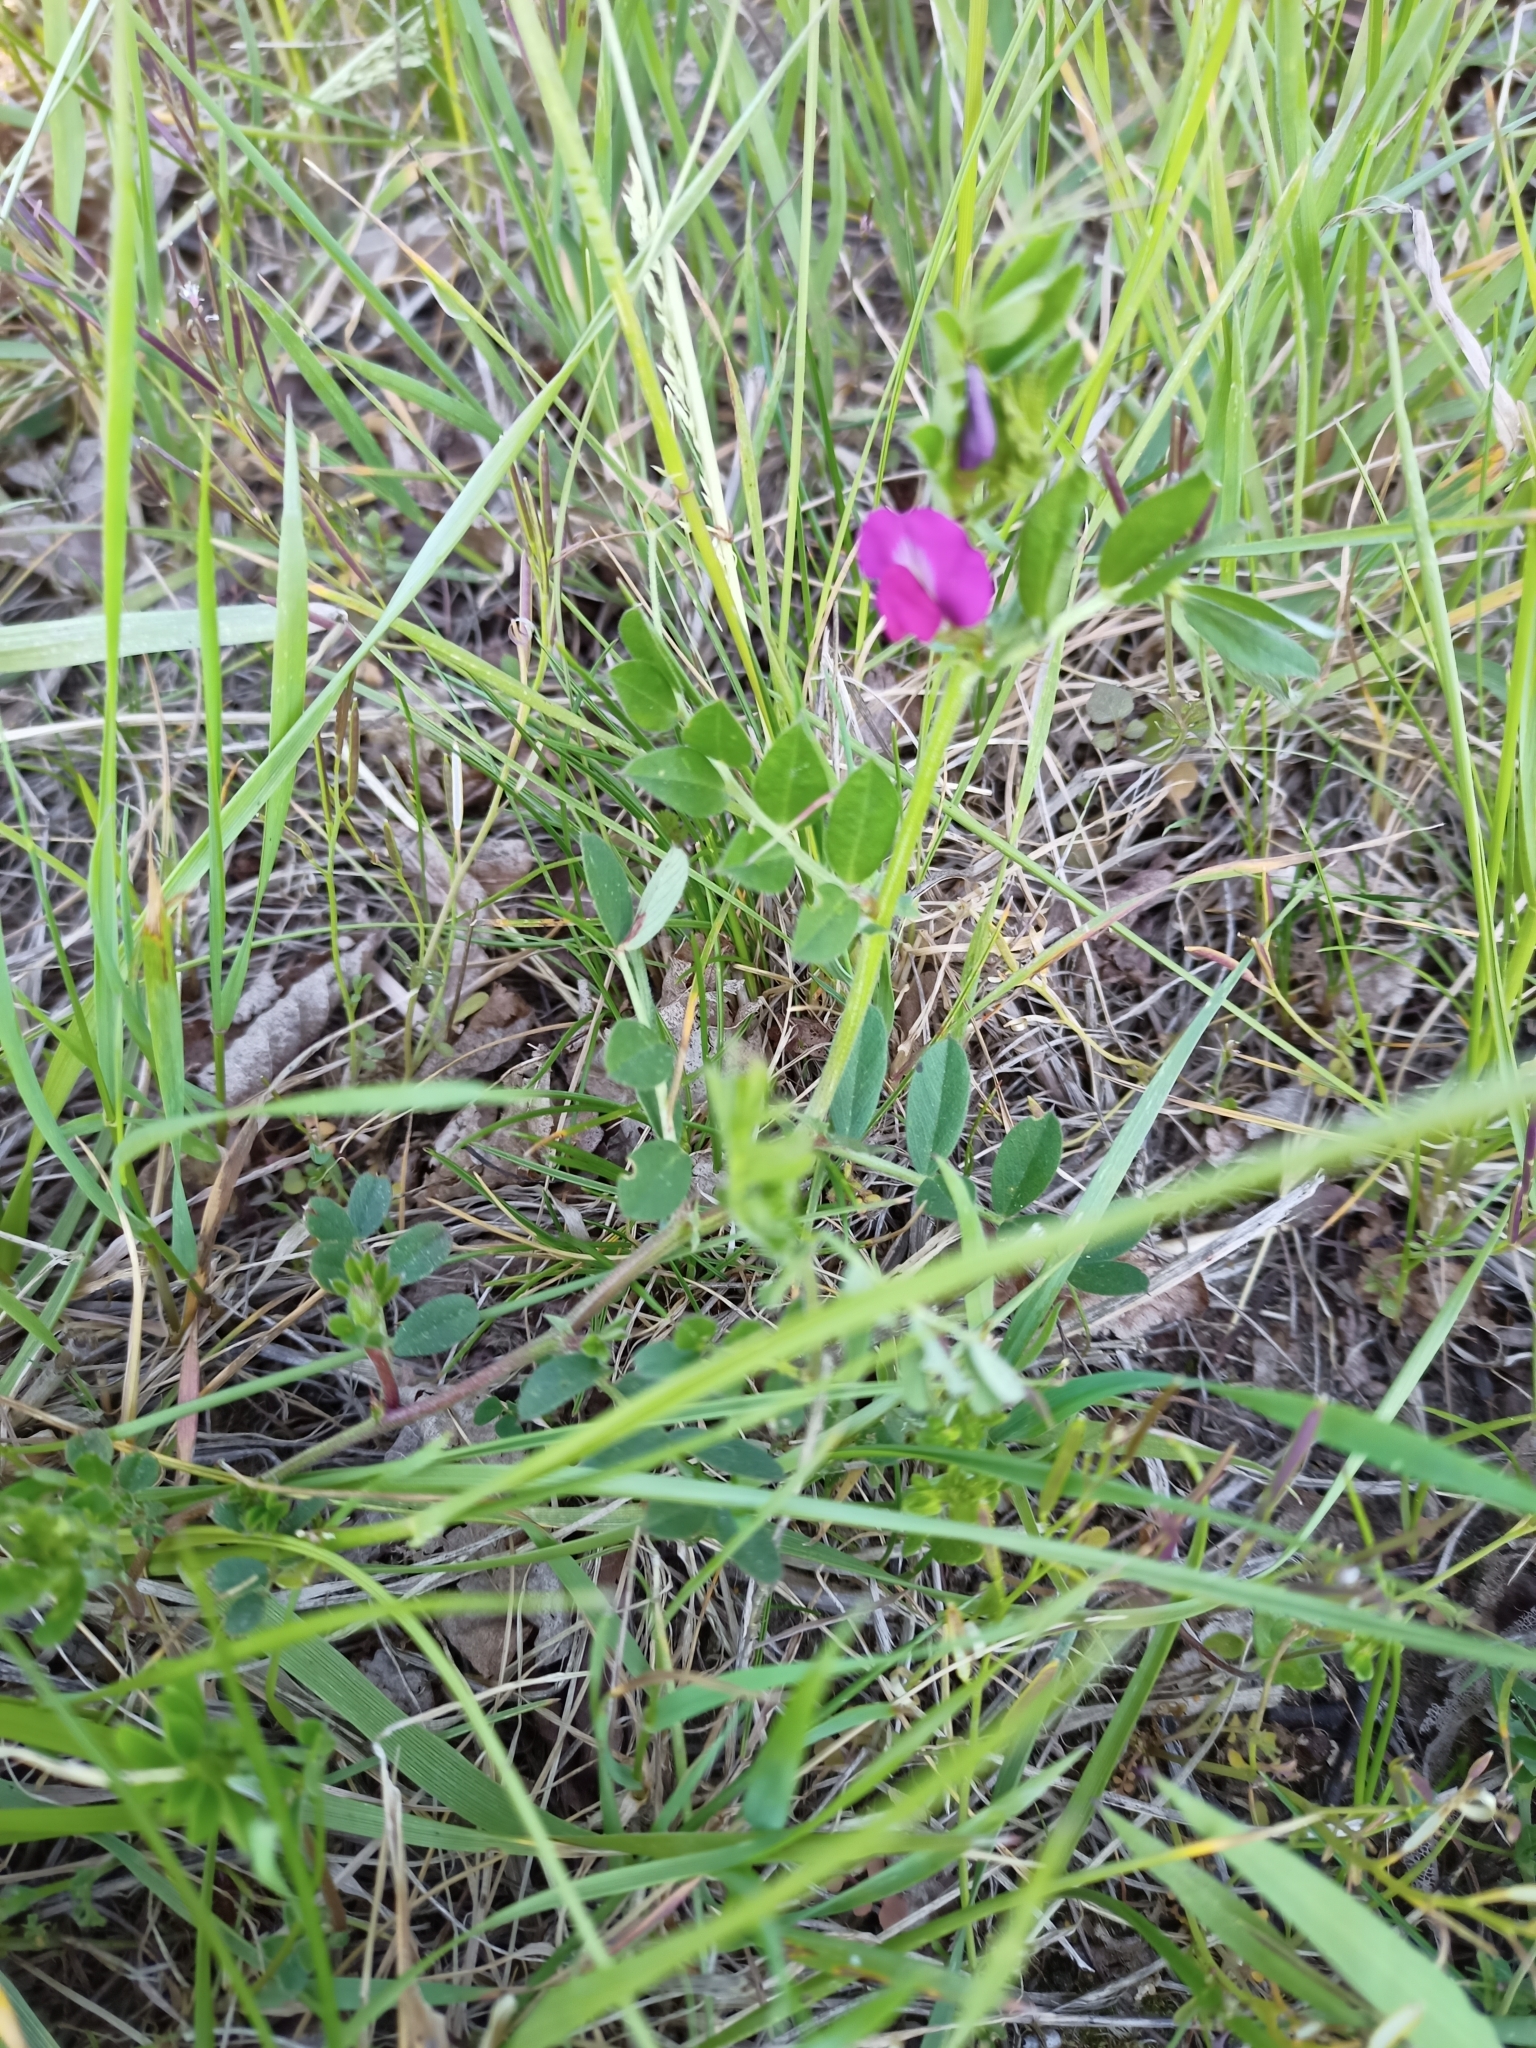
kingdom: Plantae
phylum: Tracheophyta
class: Magnoliopsida
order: Fabales
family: Fabaceae
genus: Vicia
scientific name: Vicia sativa
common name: Garden vetch
